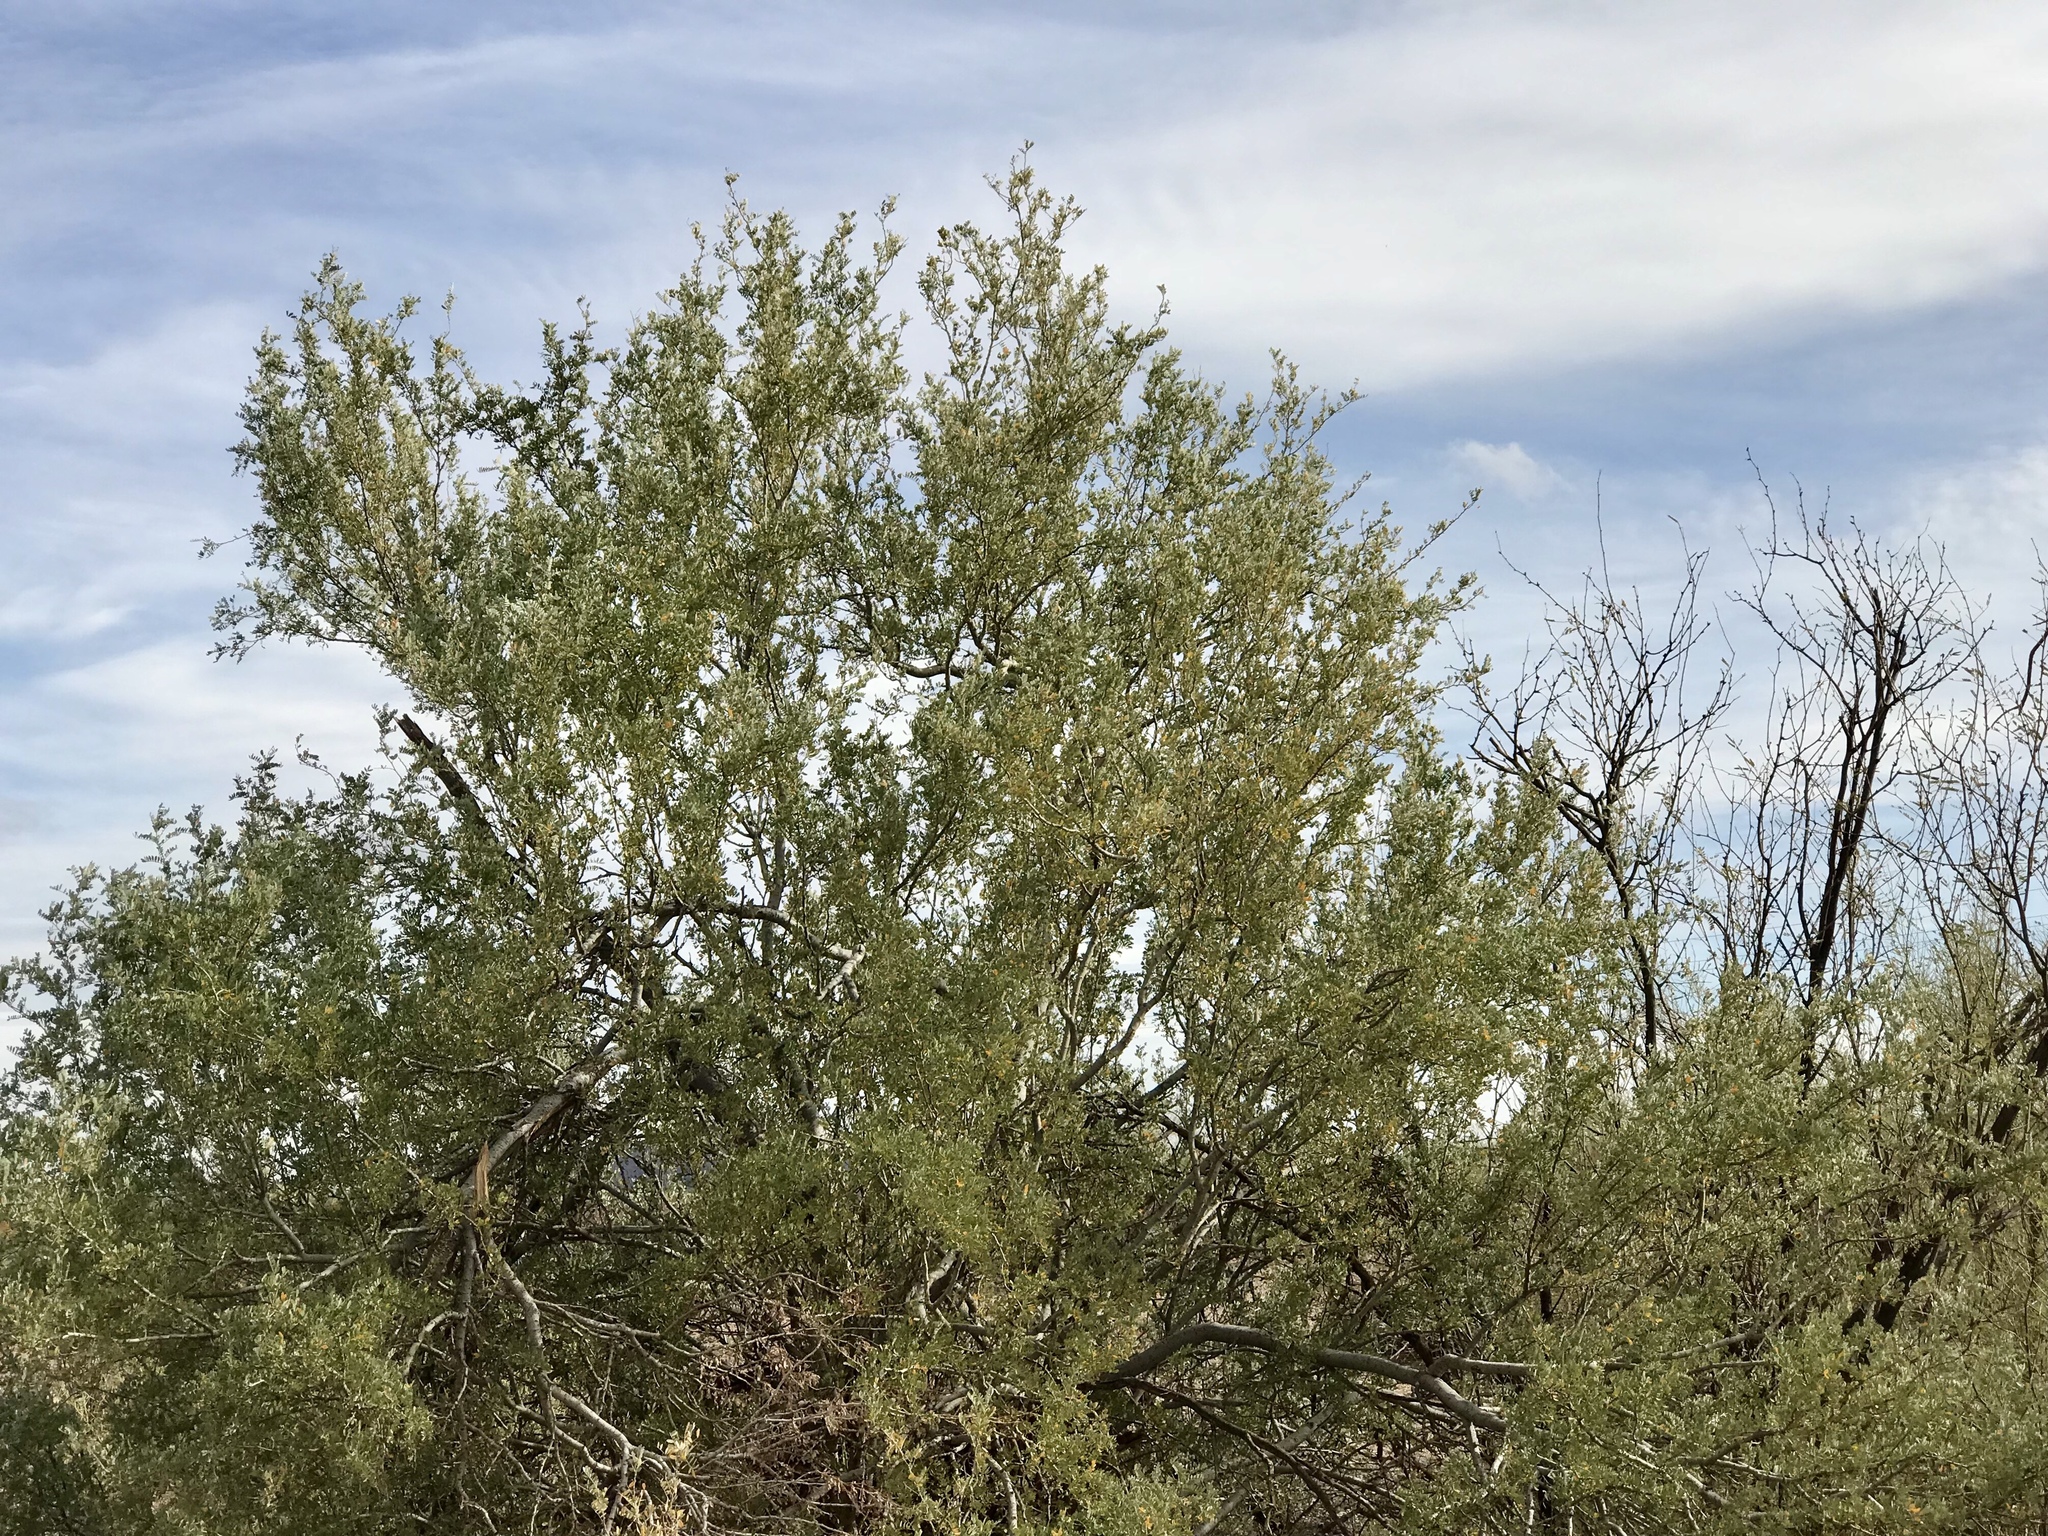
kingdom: Plantae
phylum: Tracheophyta
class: Magnoliopsida
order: Fabales
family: Fabaceae
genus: Olneya
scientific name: Olneya tesota
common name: Desert ironwood
